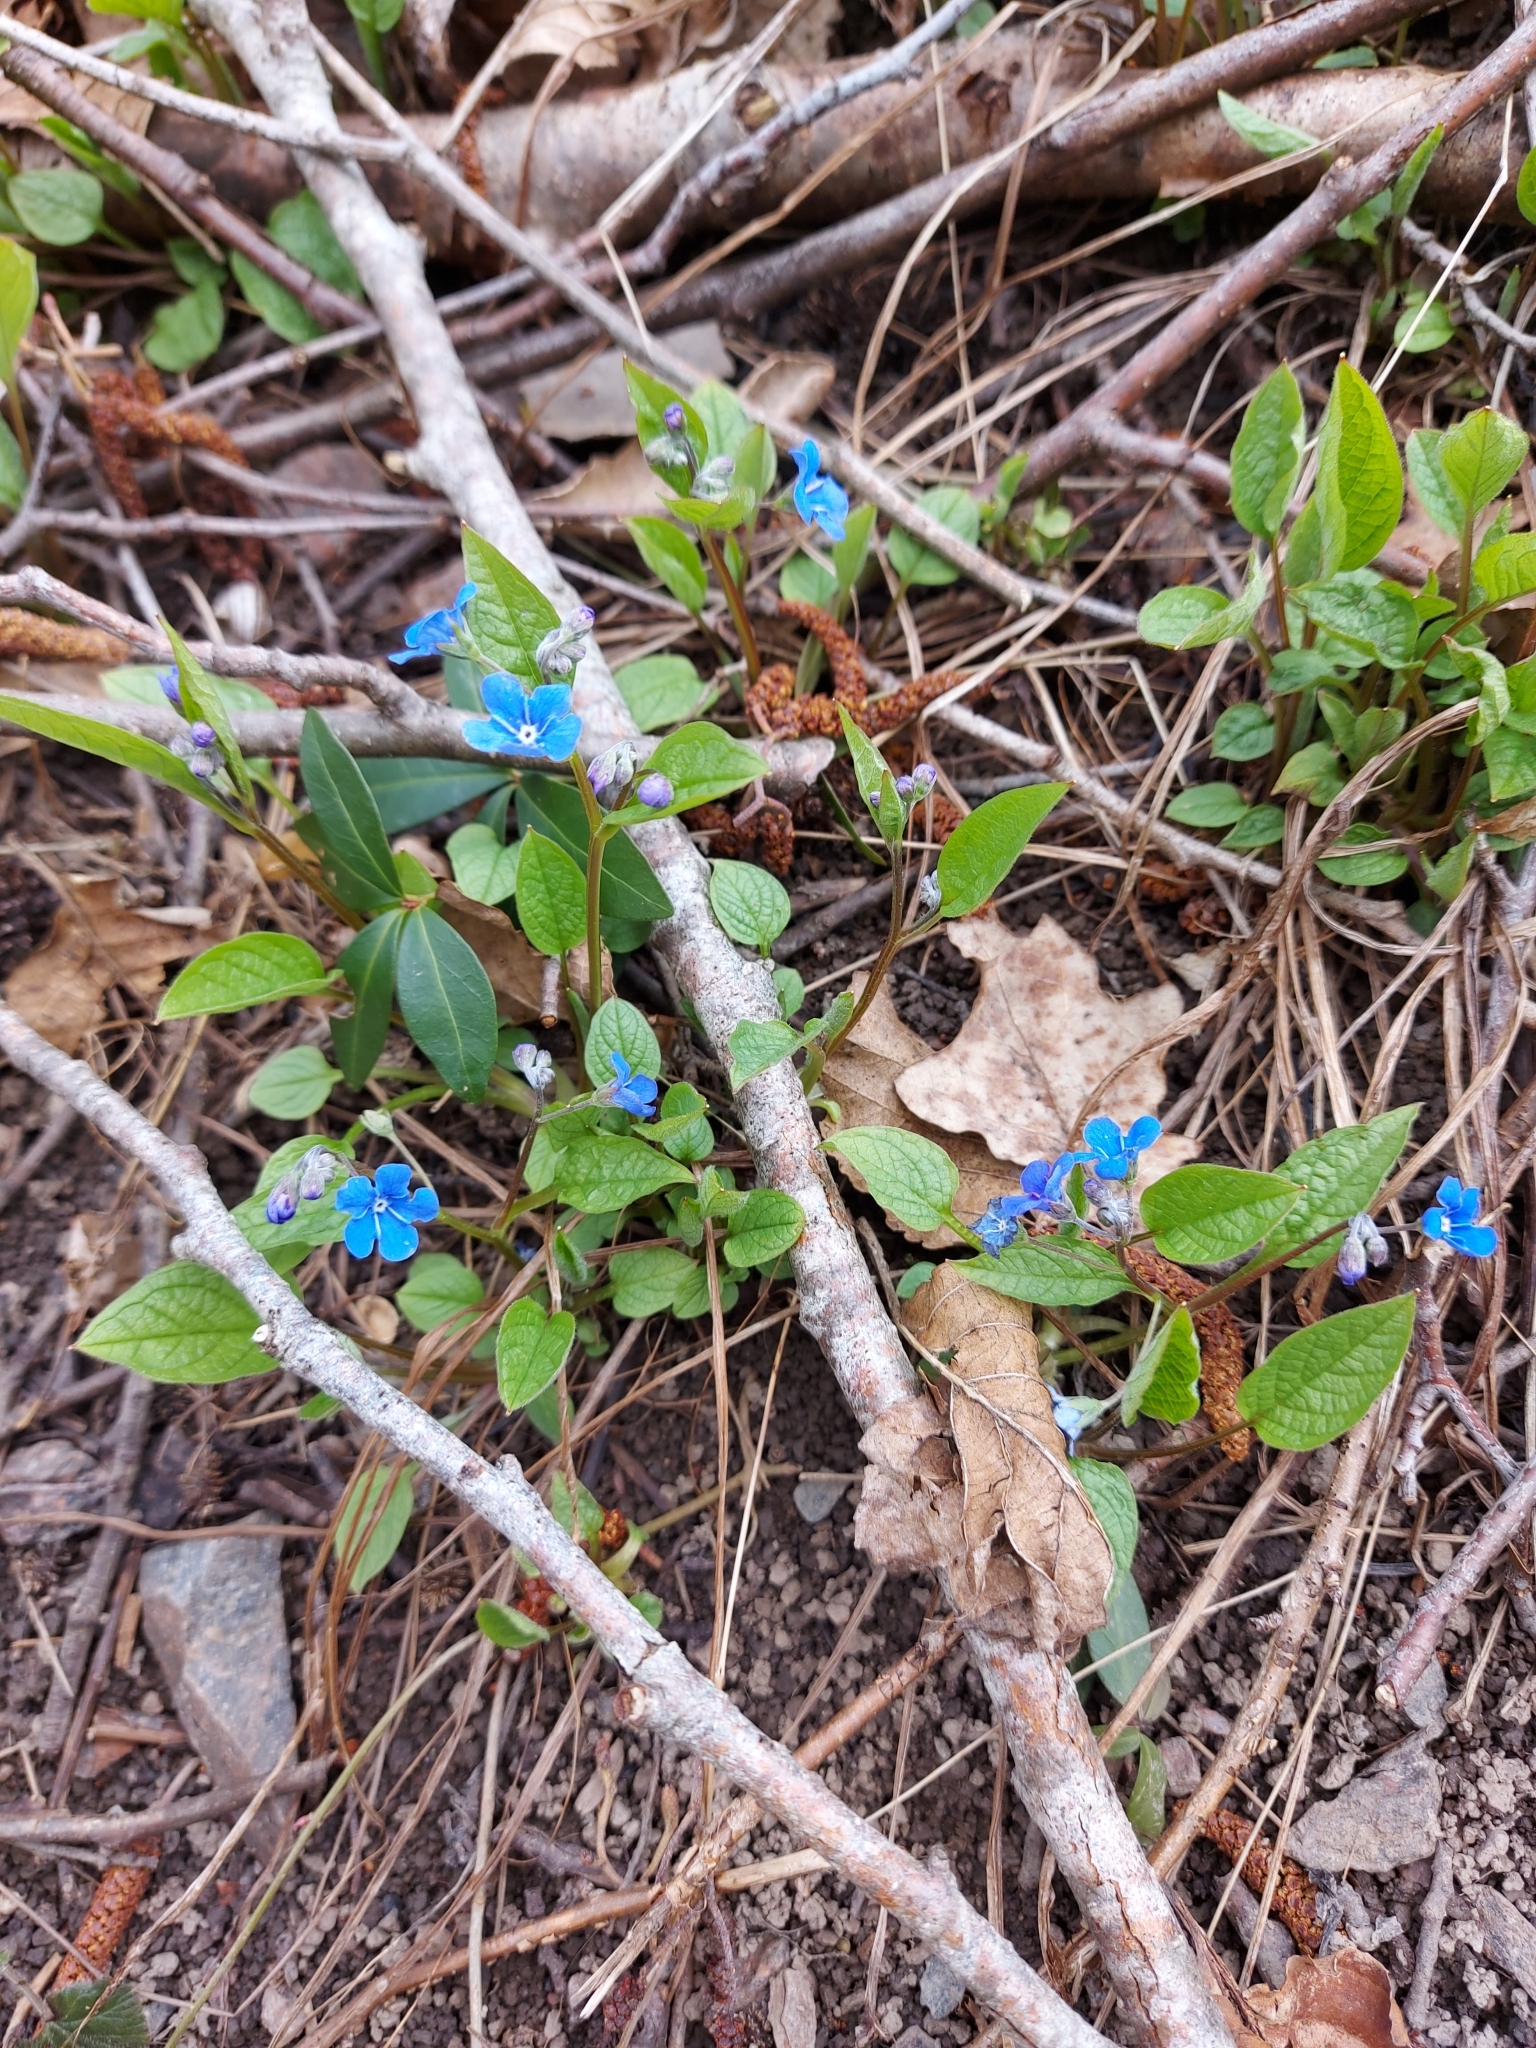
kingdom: Plantae
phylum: Tracheophyta
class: Magnoliopsida
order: Boraginales
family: Boraginaceae
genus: Omphalodes
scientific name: Omphalodes verna
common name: Blue-eyed-mary
